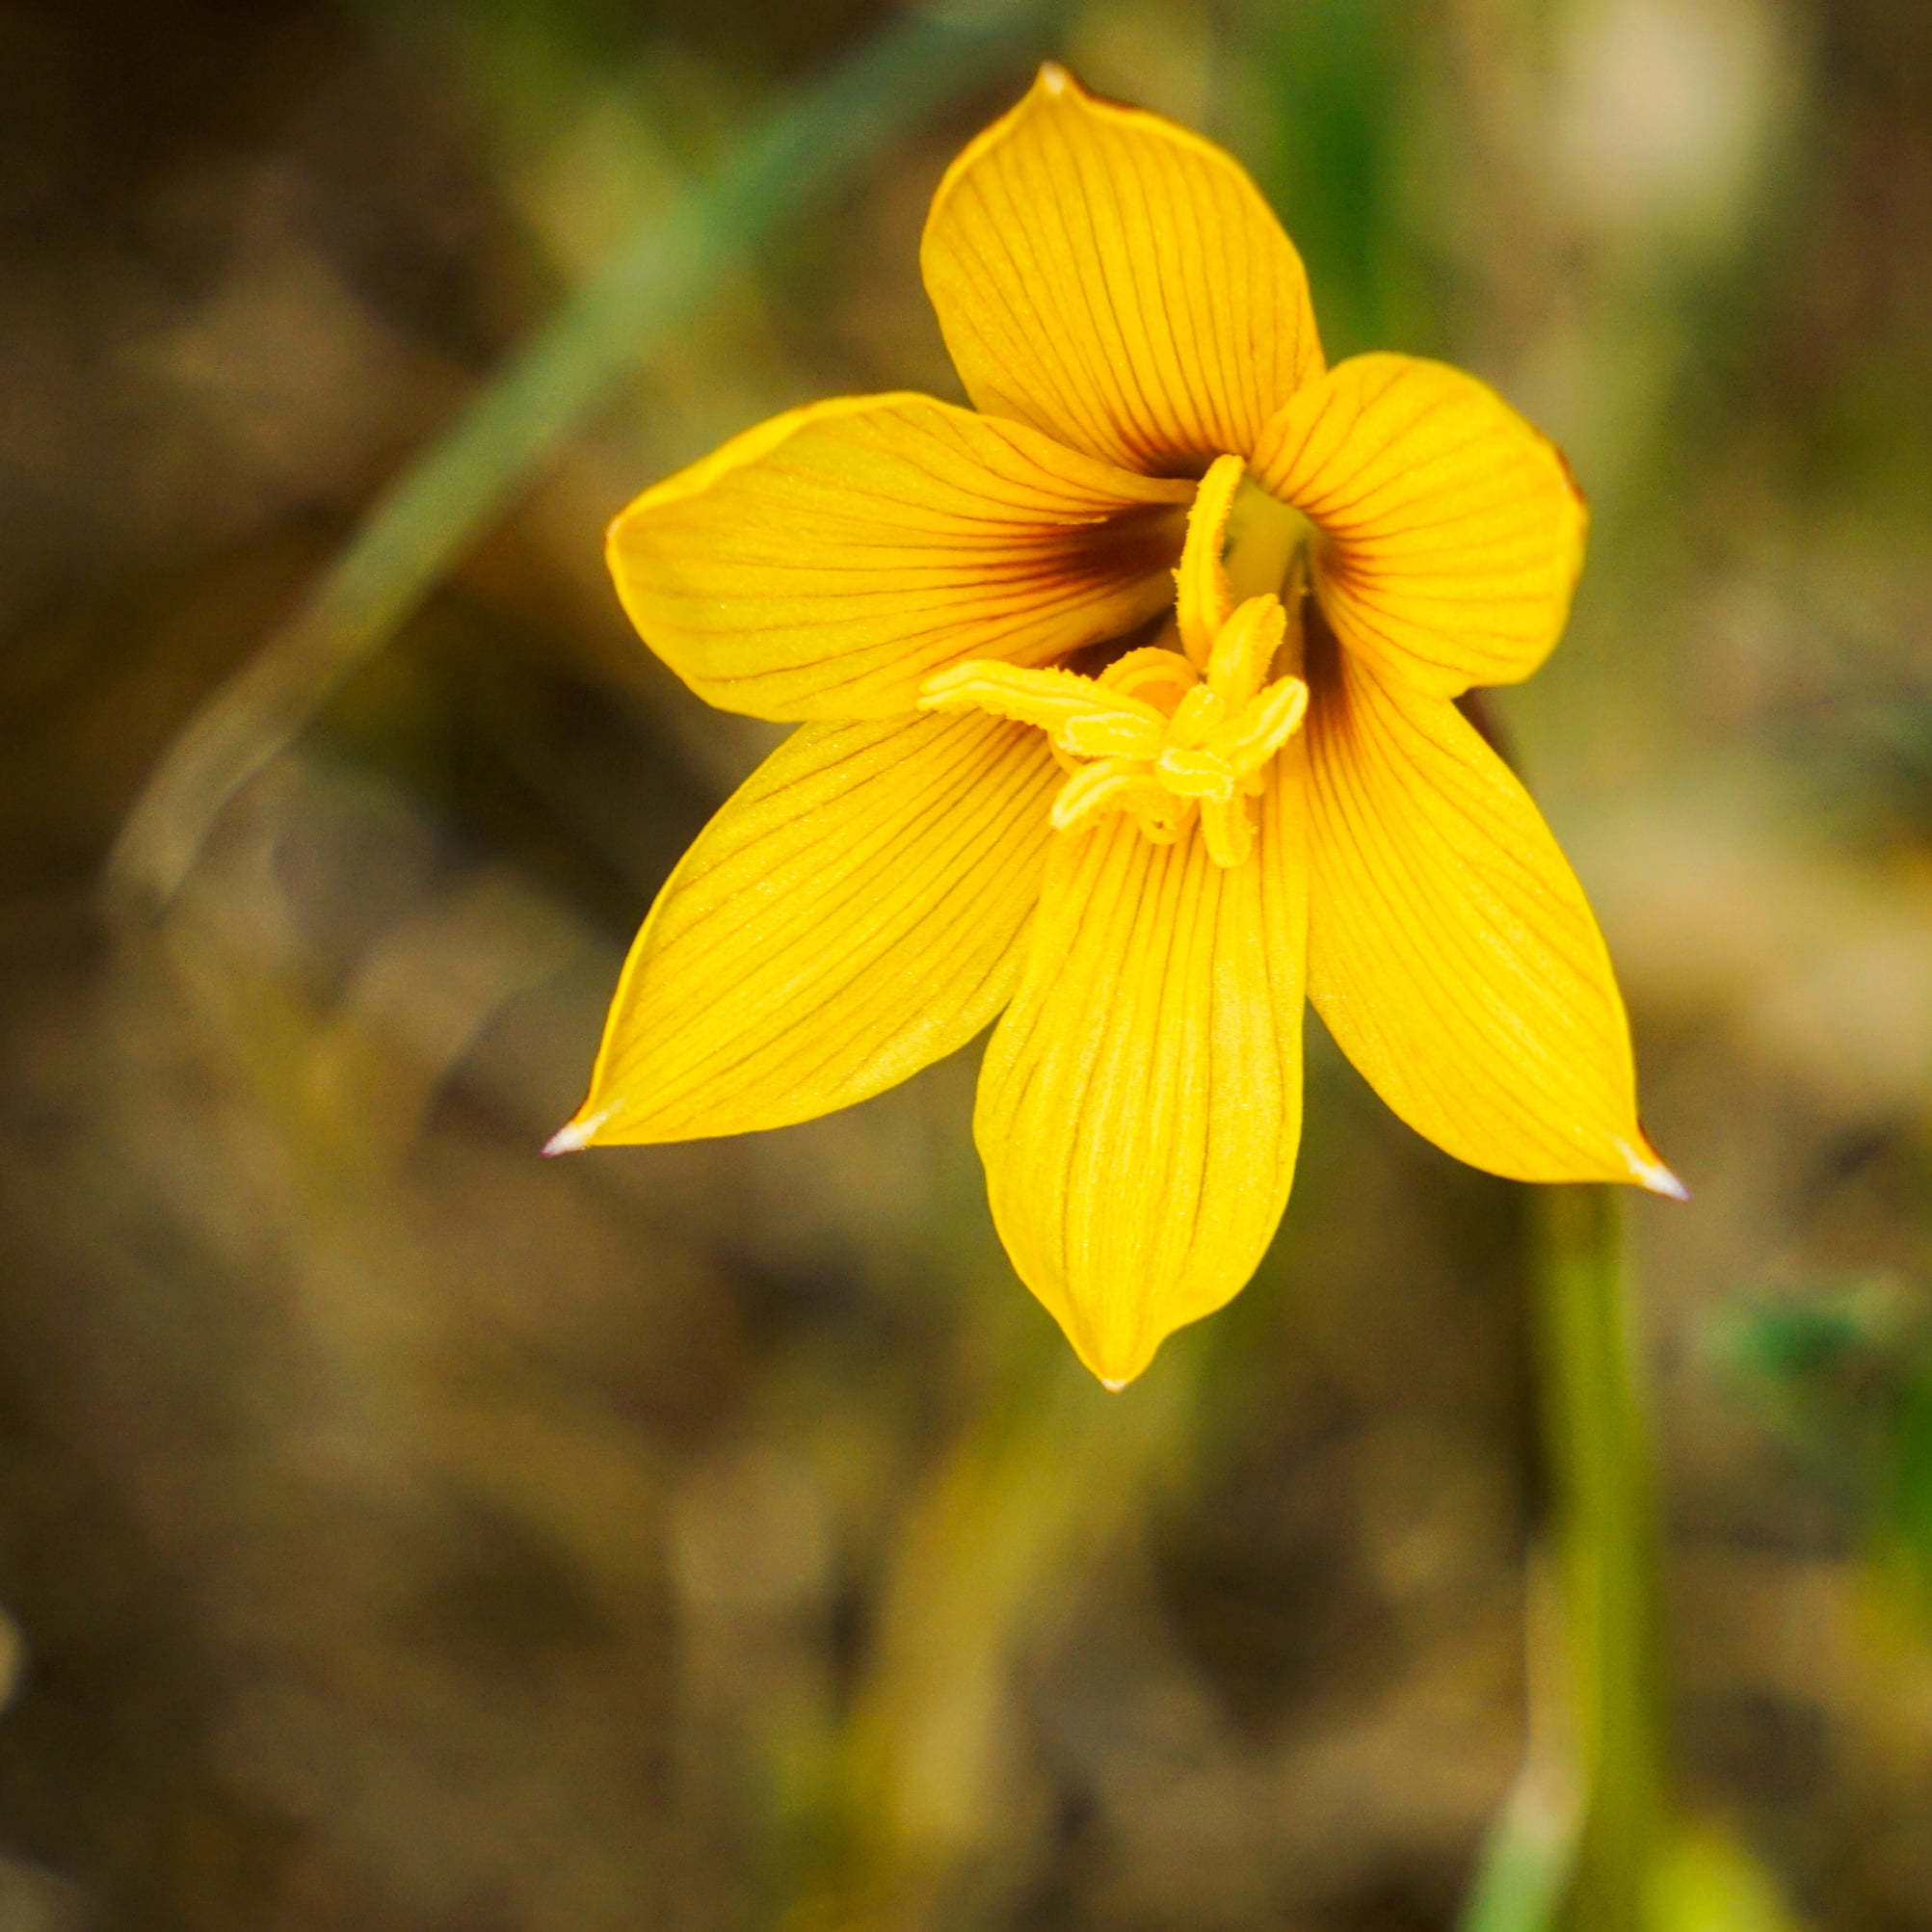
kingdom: Plantae
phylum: Tracheophyta
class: Liliopsida
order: Asparagales
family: Amaryllidaceae
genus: Zephyranthes
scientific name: Zephyranthes tubispatha
